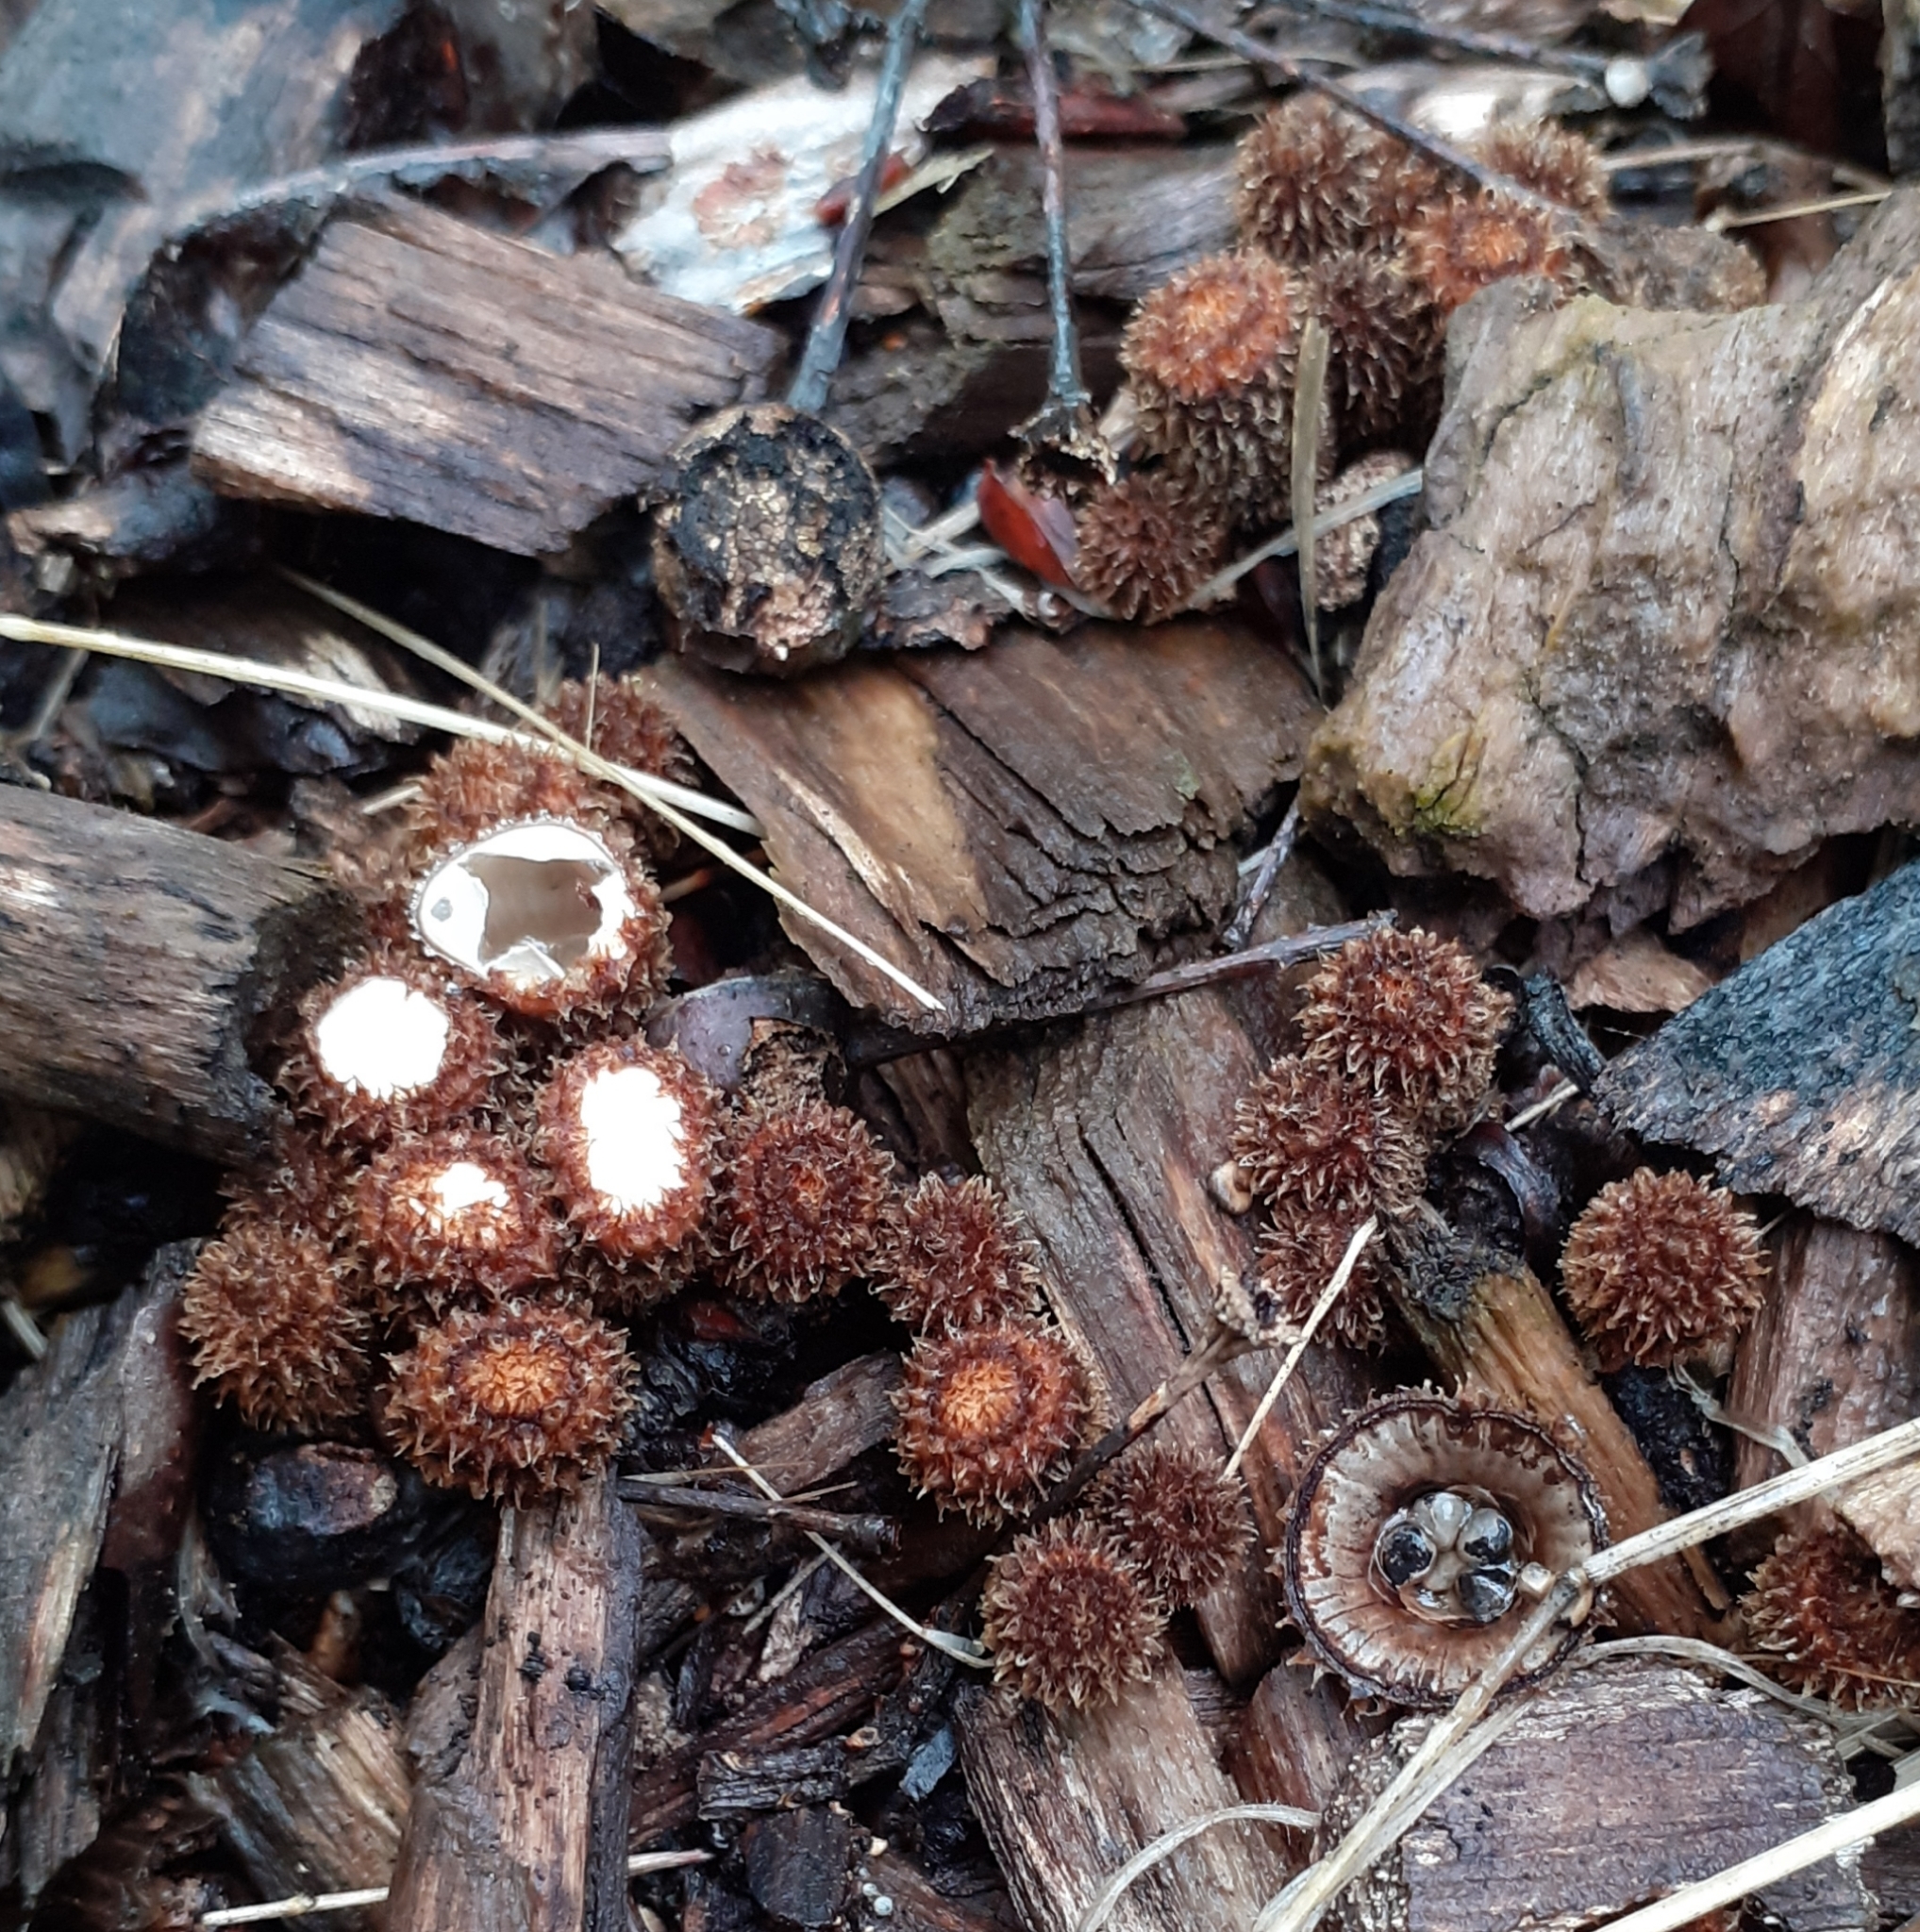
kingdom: Fungi
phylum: Basidiomycota
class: Agaricomycetes
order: Agaricales
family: Agaricaceae
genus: Cyathus
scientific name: Cyathus striatus
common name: Fluted bird's nest
